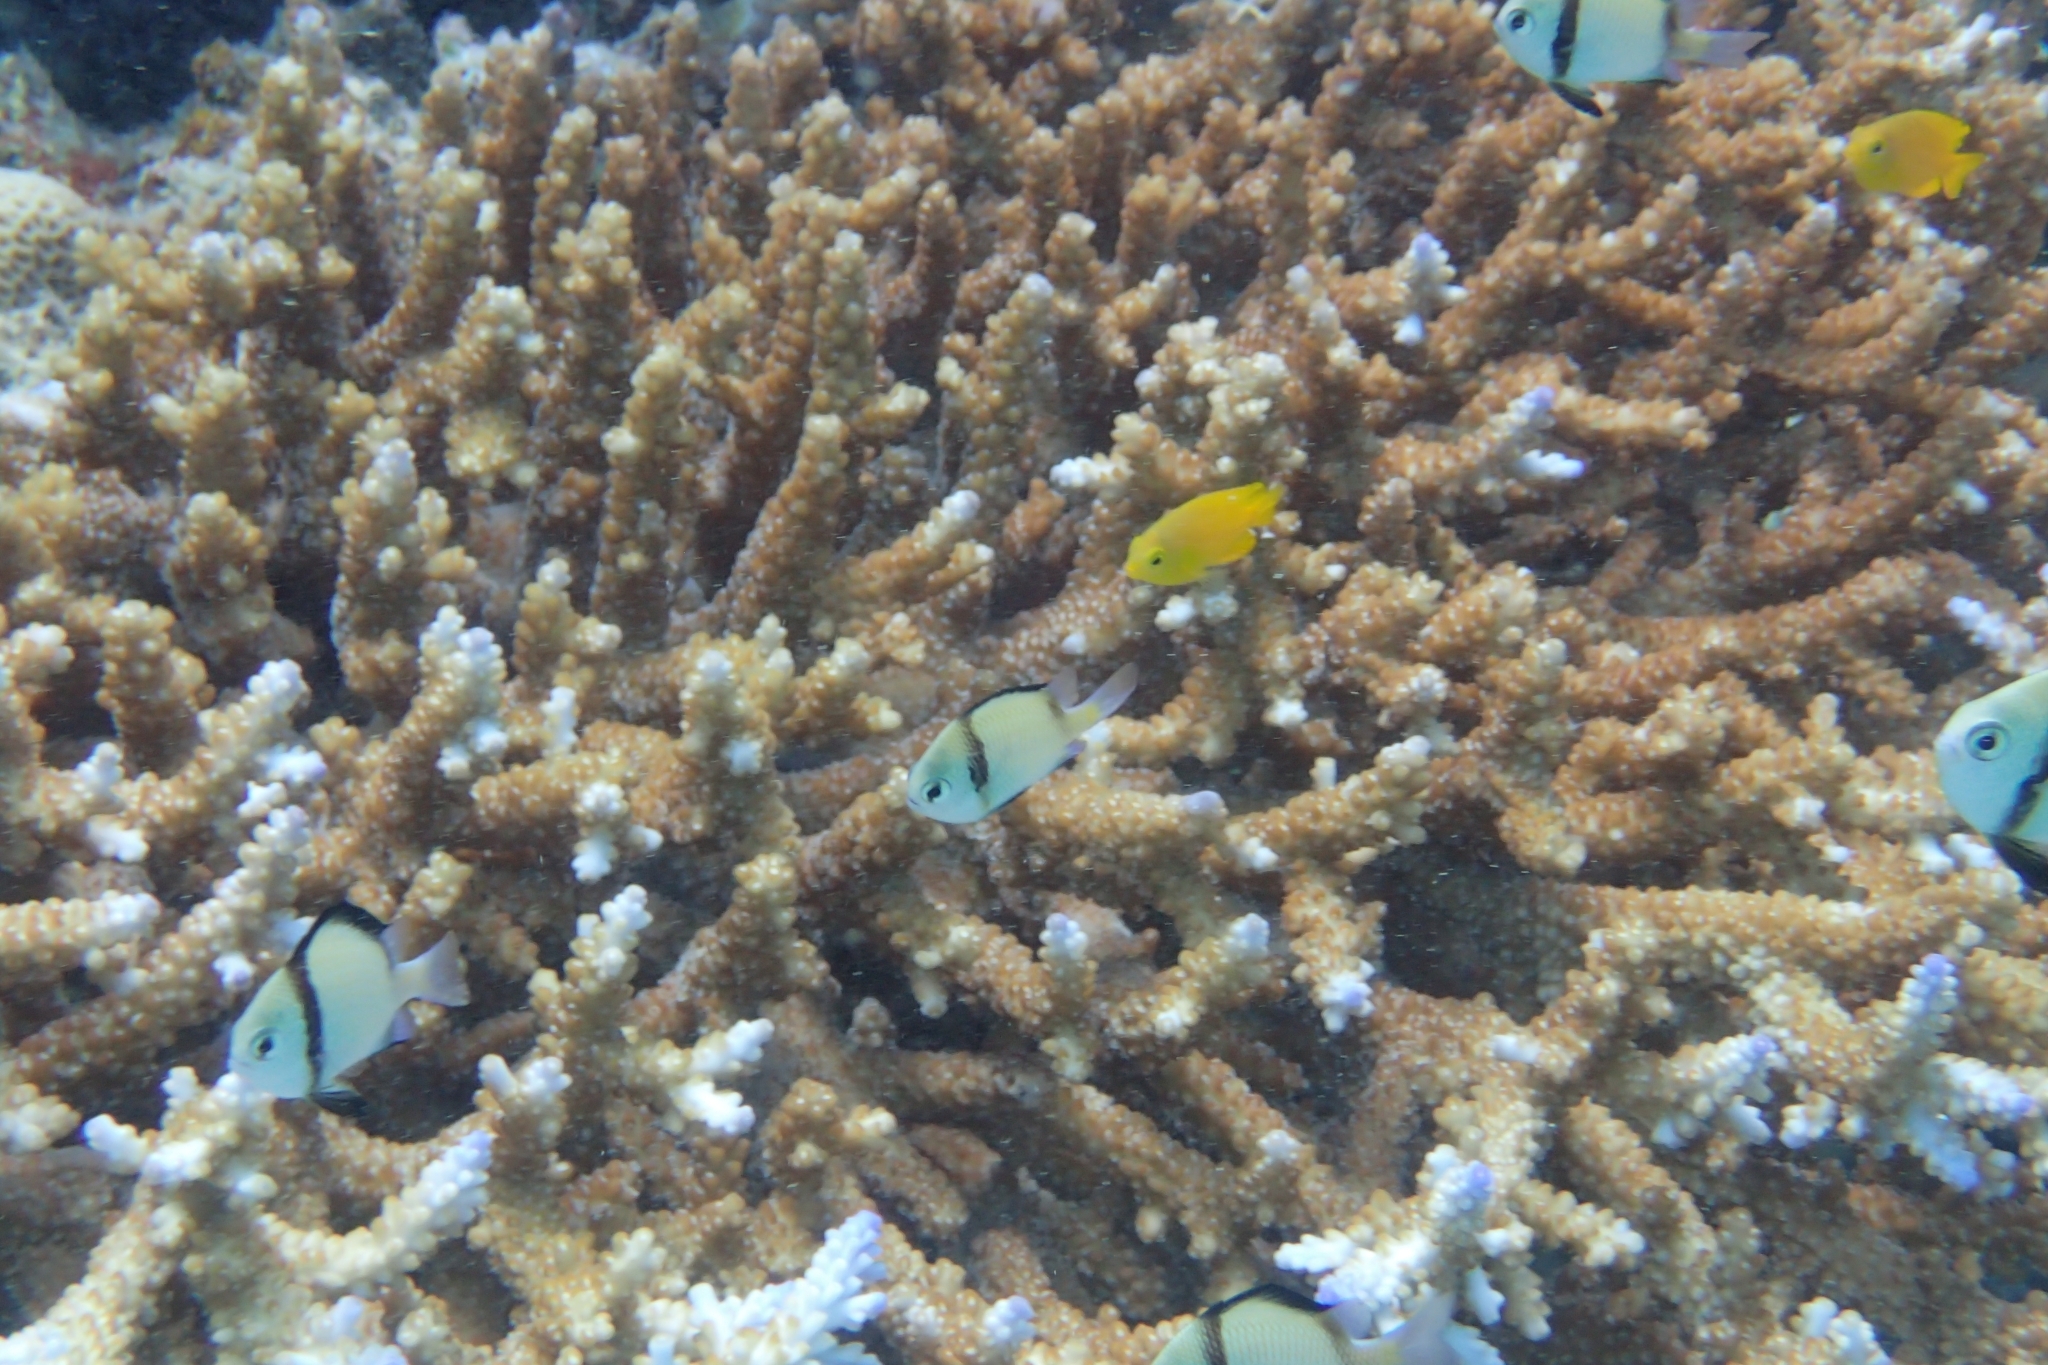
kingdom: Animalia
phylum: Chordata
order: Perciformes
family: Pomacentridae
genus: Dascyllus
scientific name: Dascyllus reticulatus
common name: Reticulated dascyllus
